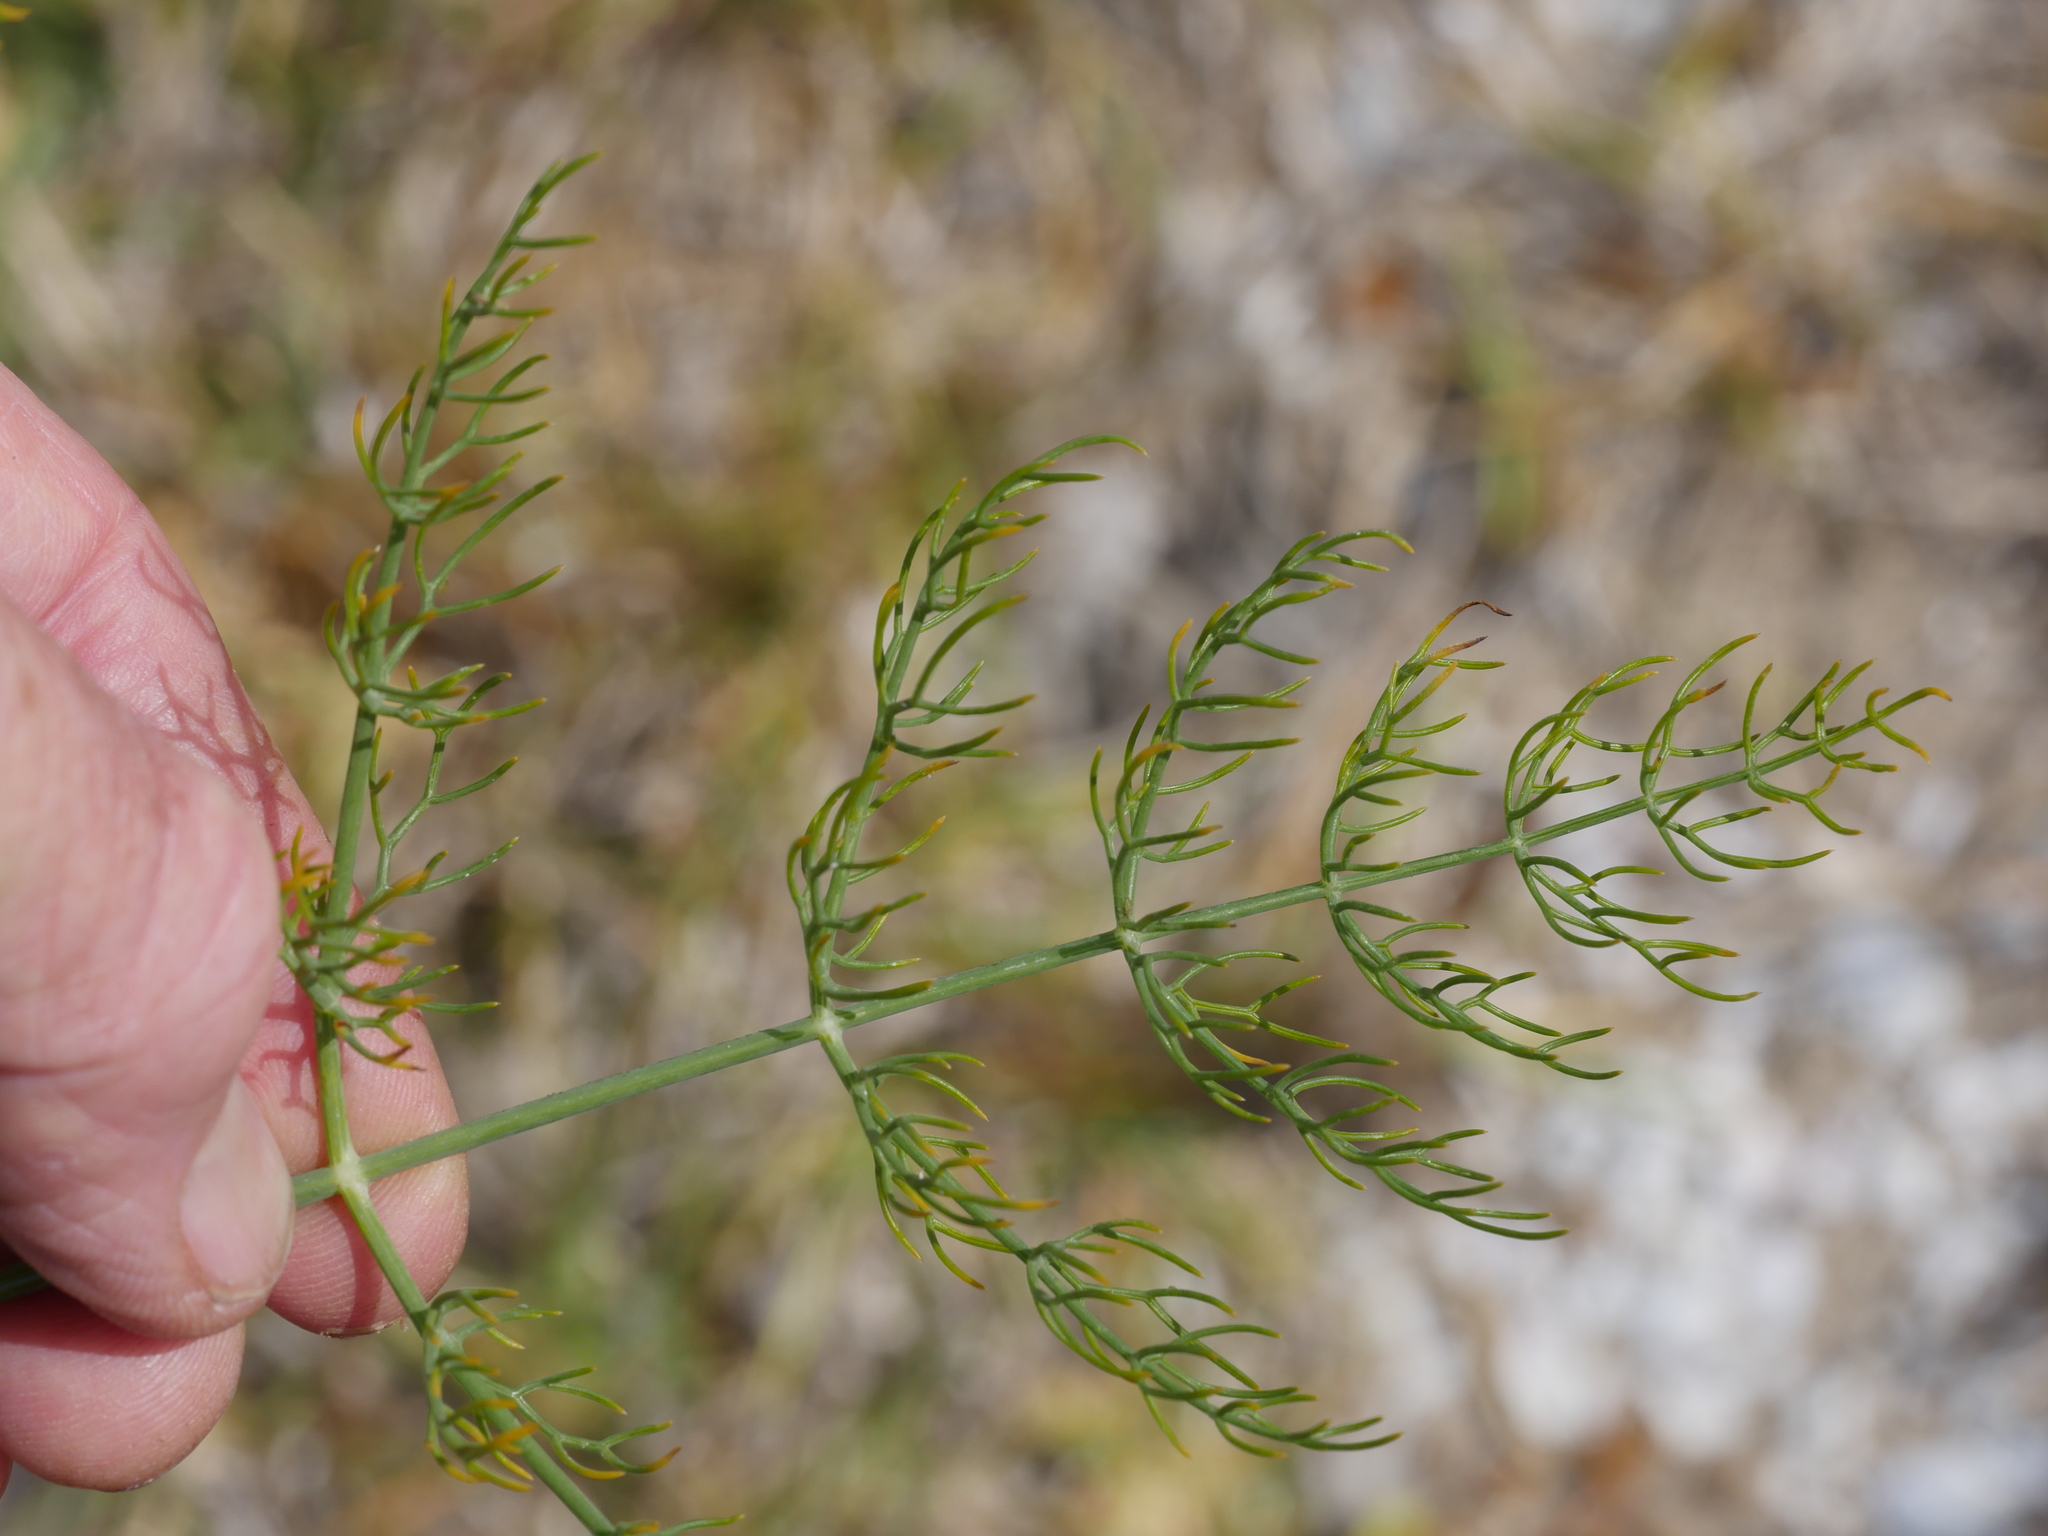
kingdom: Plantae
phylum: Tracheophyta
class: Magnoliopsida
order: Apiales
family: Apiaceae
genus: Foeniculum
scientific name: Foeniculum vulgare
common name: Fennel
